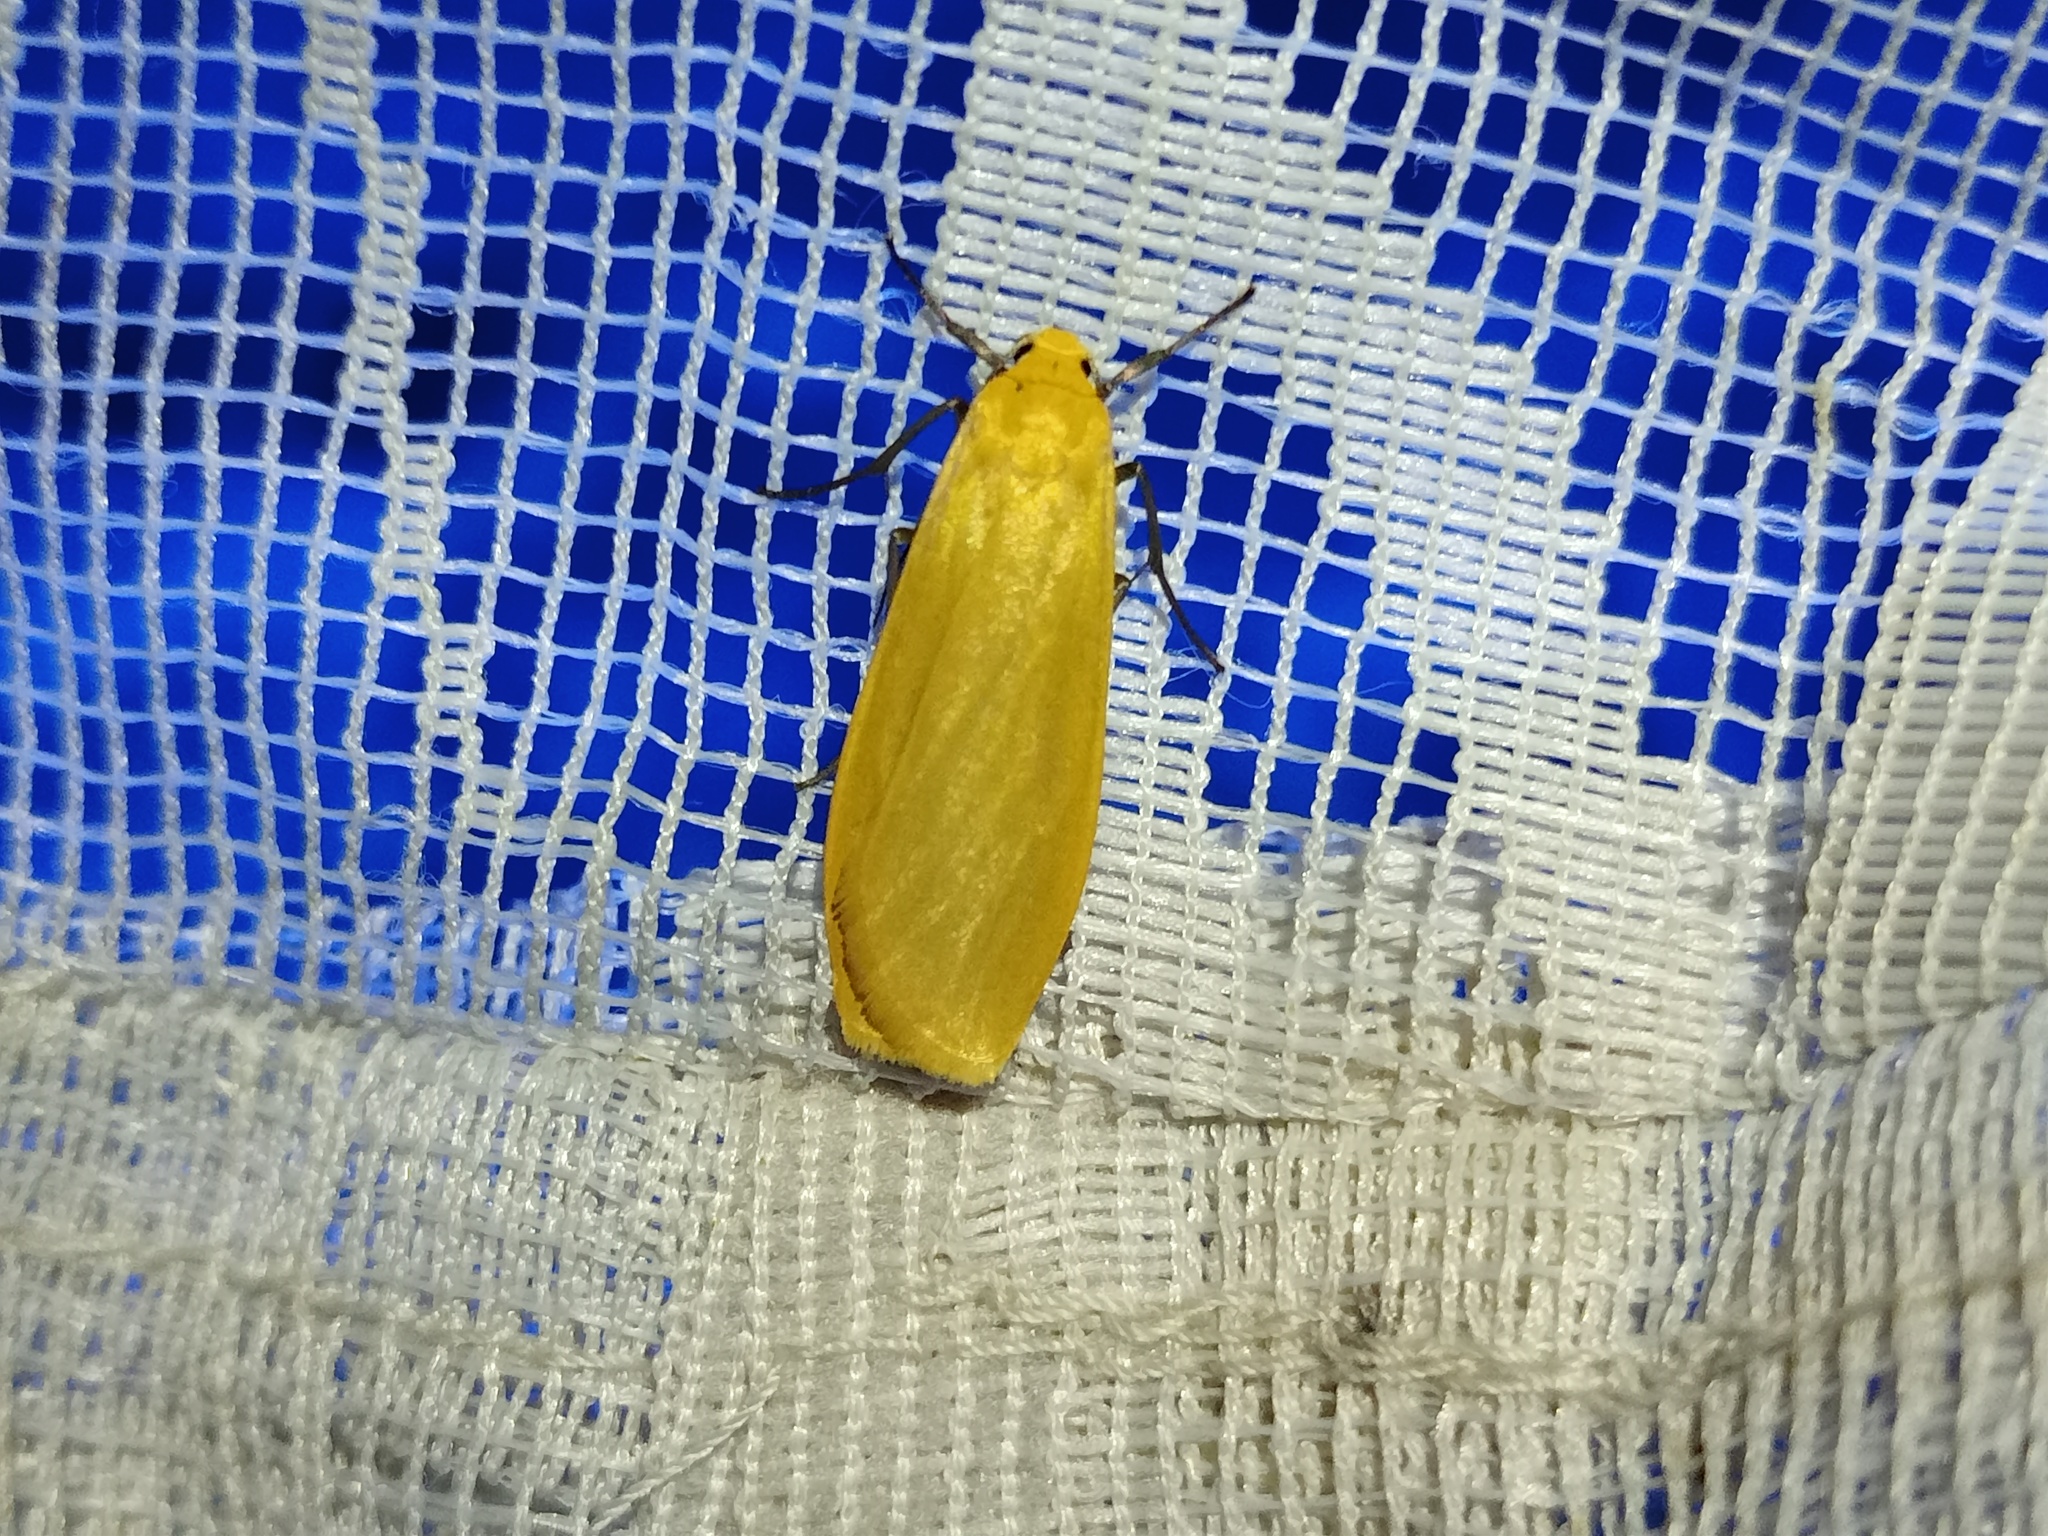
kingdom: Animalia
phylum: Arthropoda
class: Insecta
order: Lepidoptera
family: Erebidae
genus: Wittia
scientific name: Wittia sororcula
